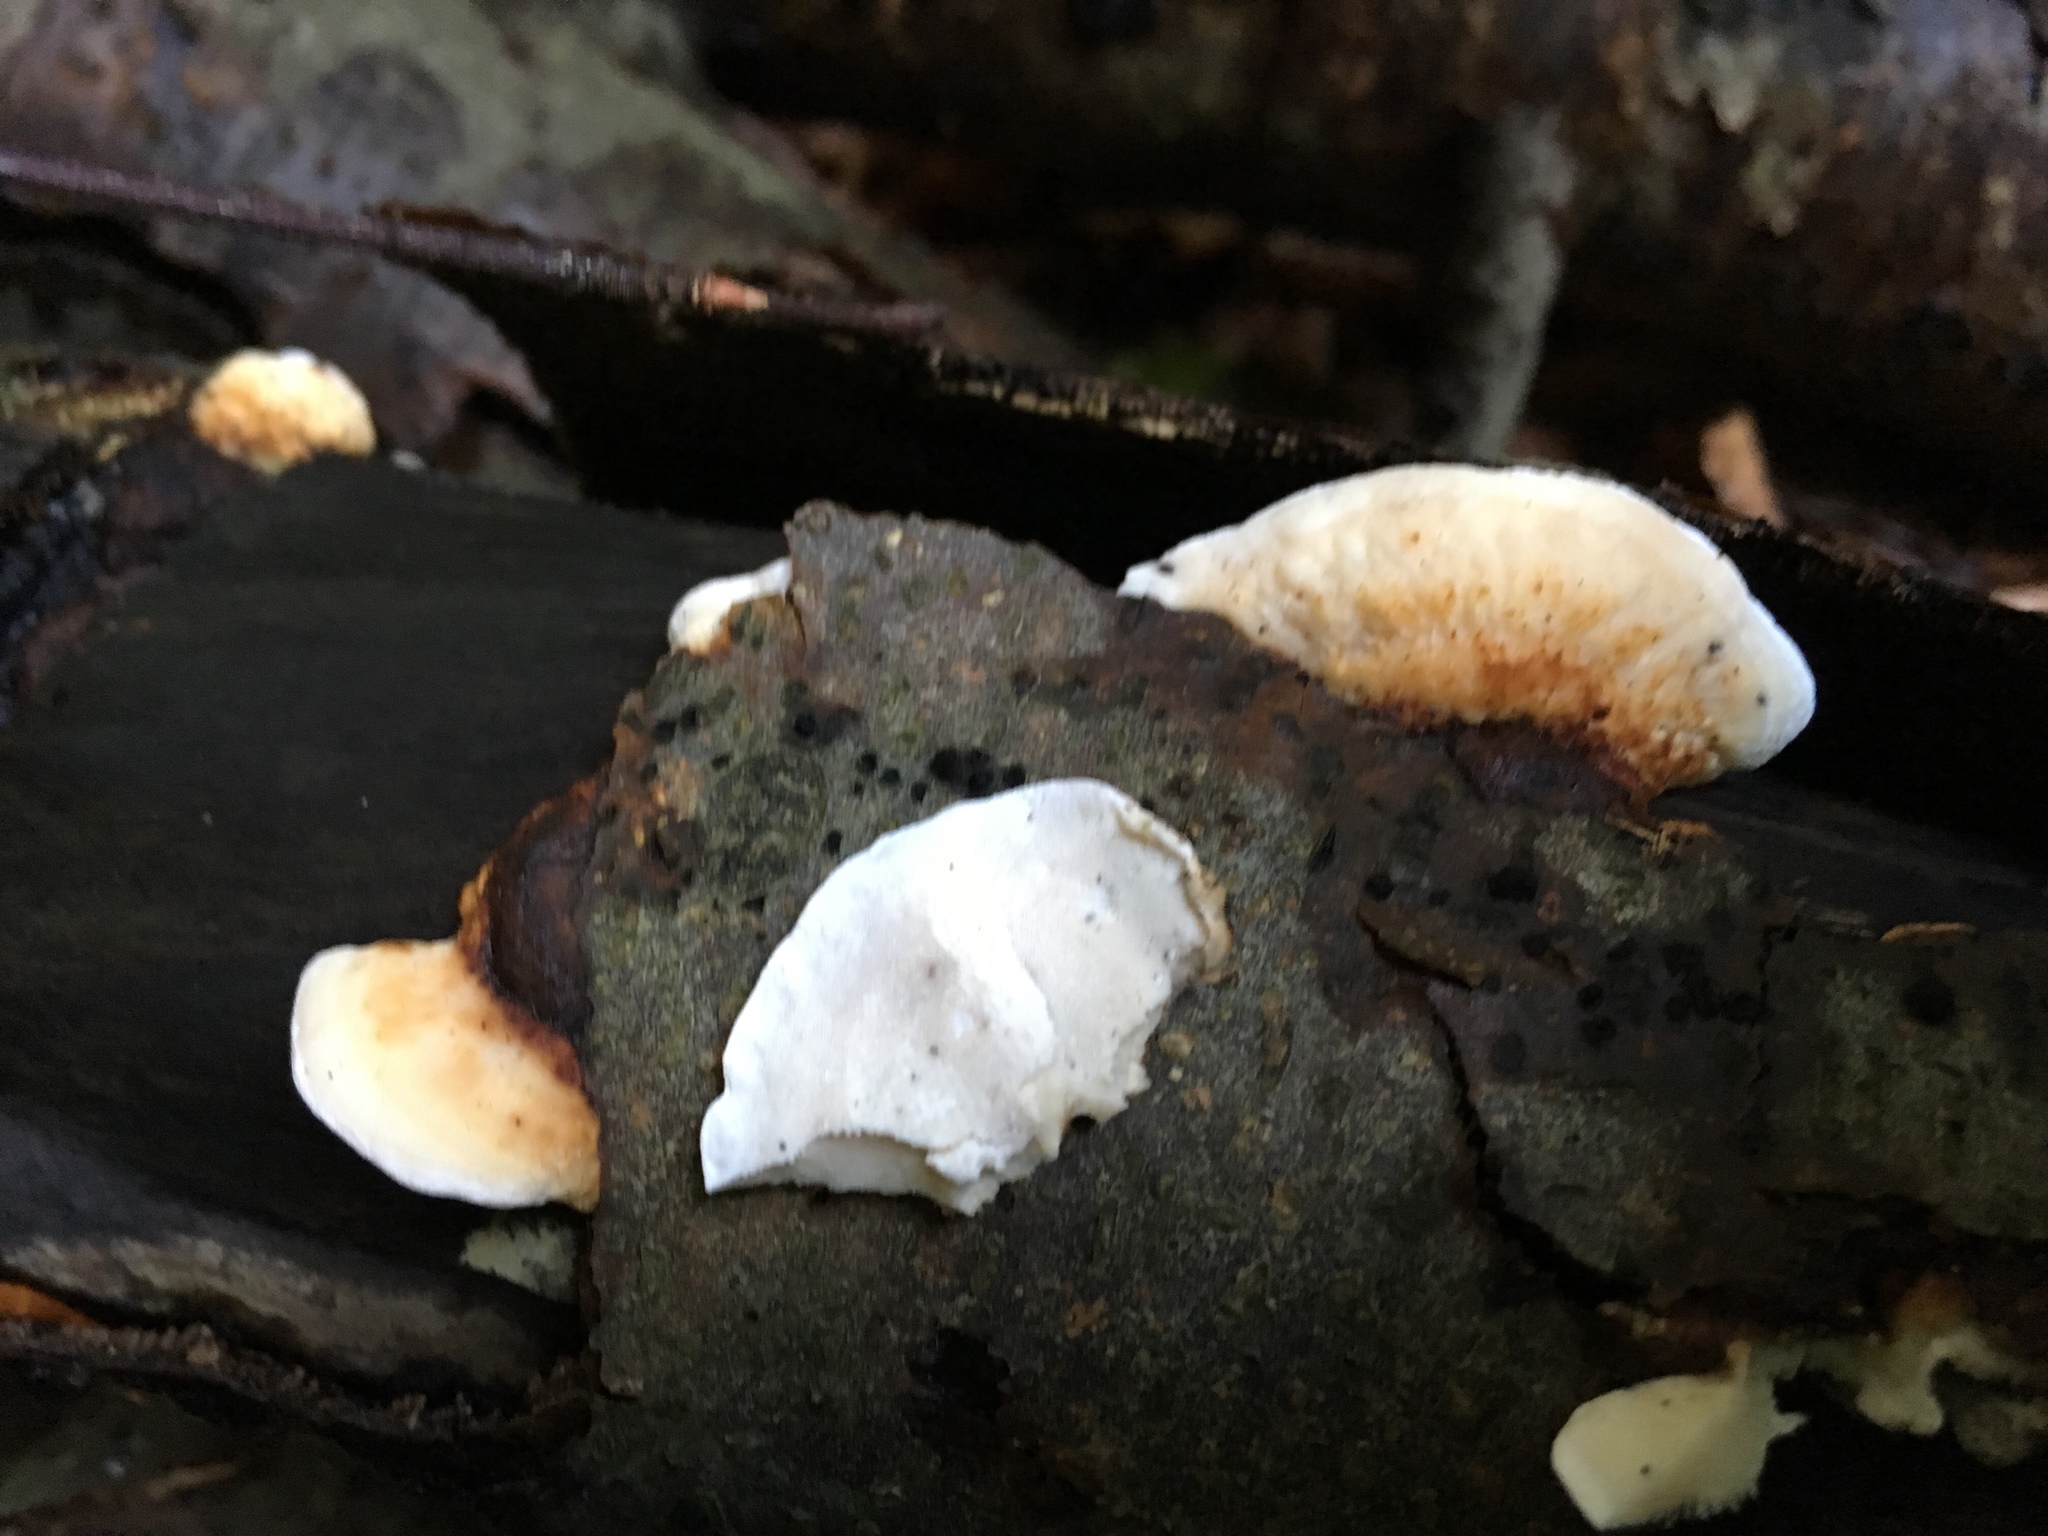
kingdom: Fungi
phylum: Basidiomycota
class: Agaricomycetes
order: Polyporales
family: Incrustoporiaceae
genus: Skeletocutis
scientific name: Skeletocutis nivea
